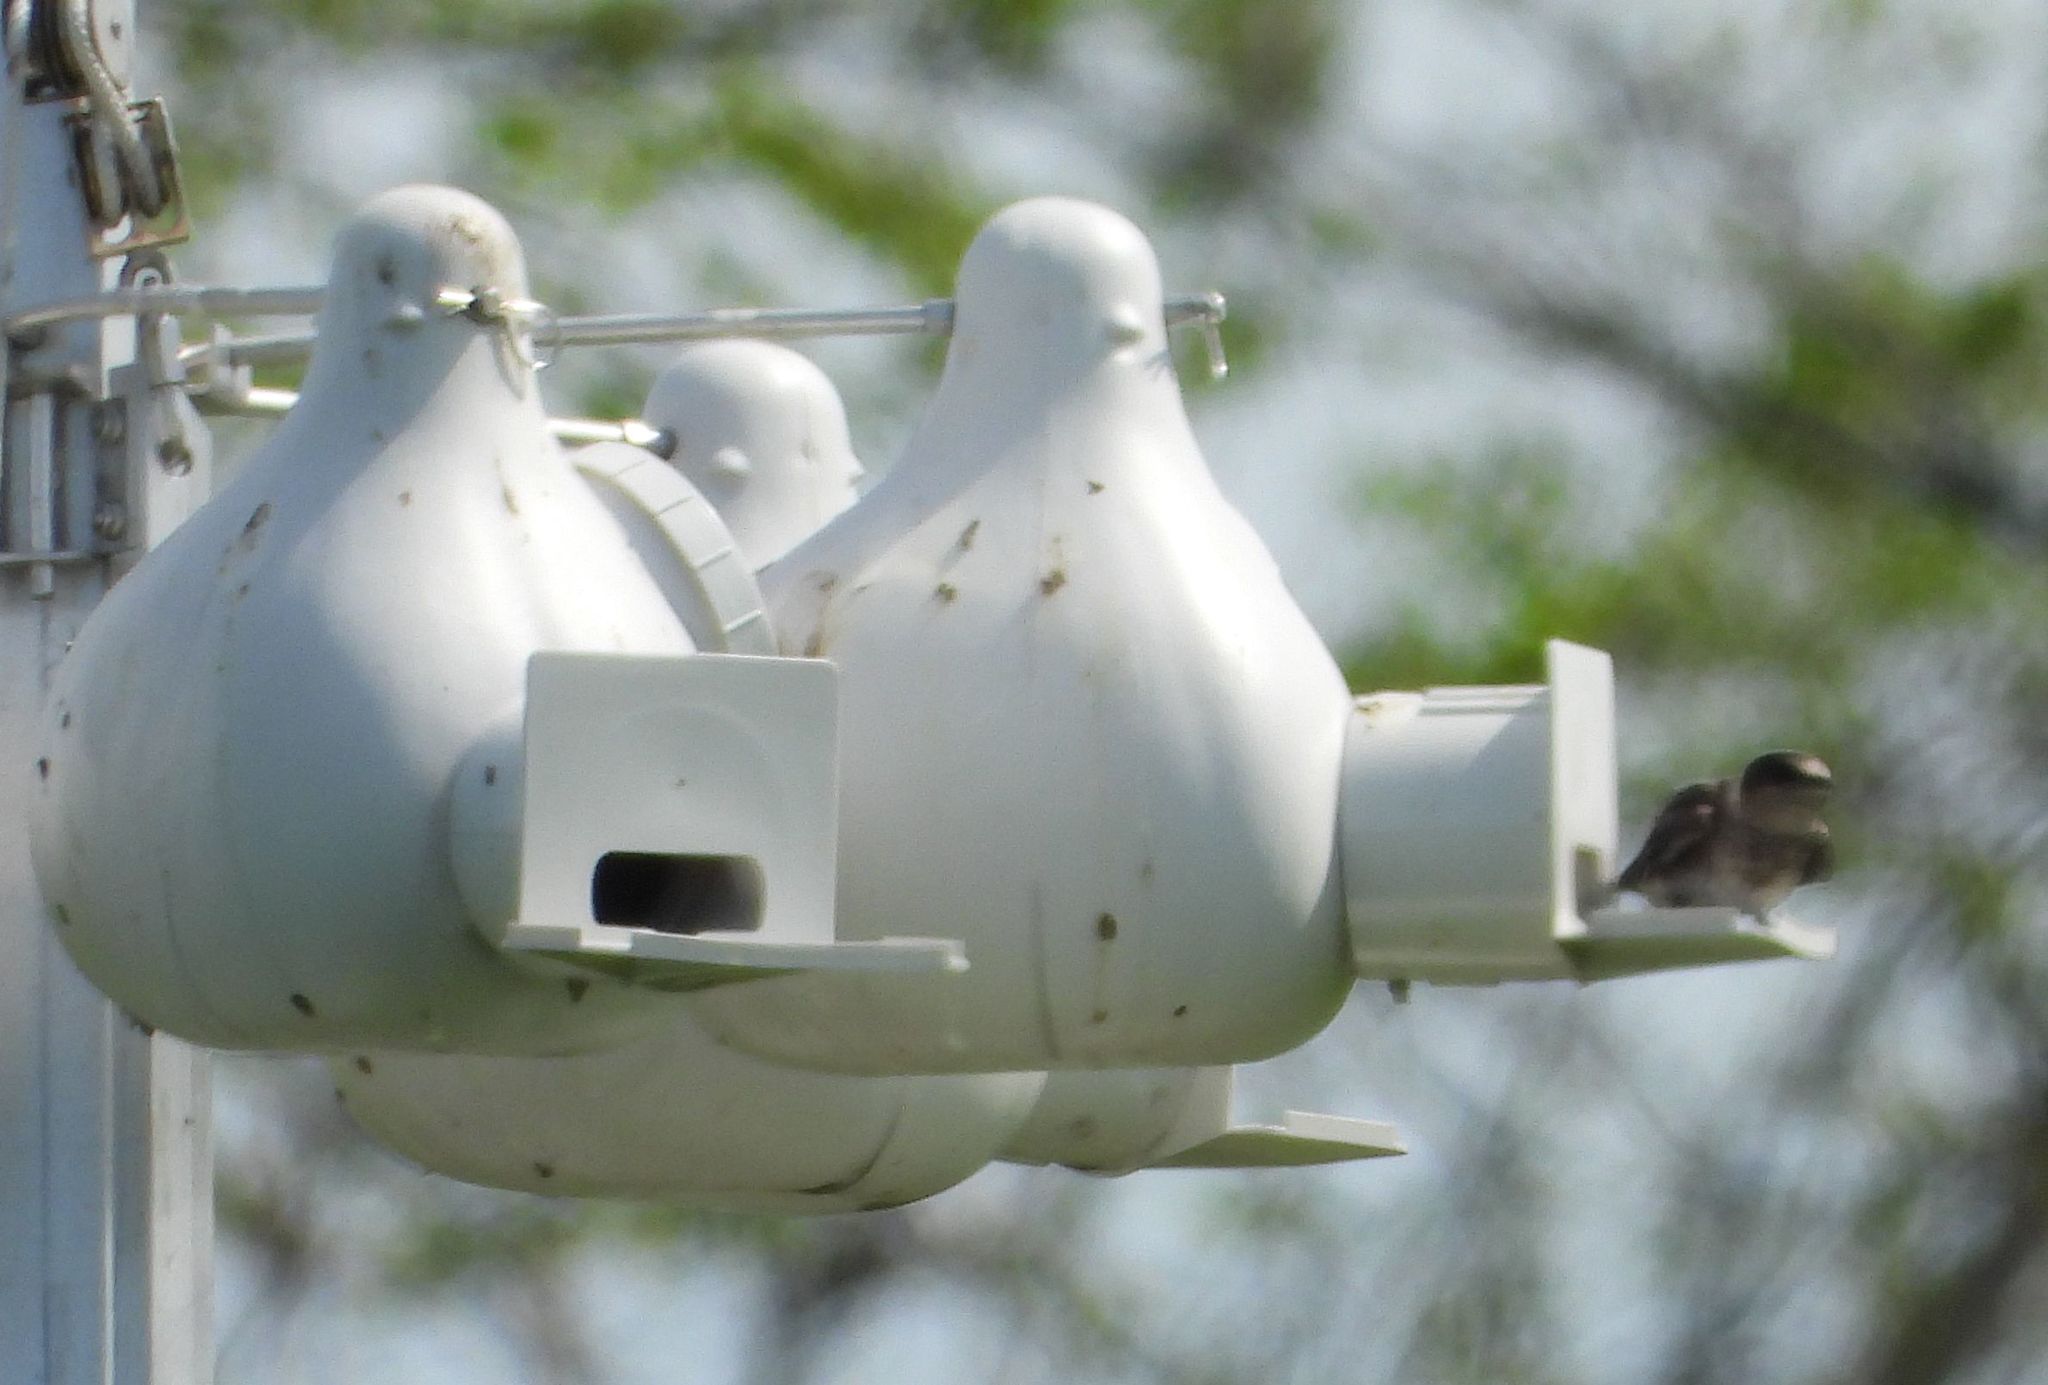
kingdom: Animalia
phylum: Chordata
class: Aves
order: Passeriformes
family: Hirundinidae
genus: Progne
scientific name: Progne subis
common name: Purple martin
